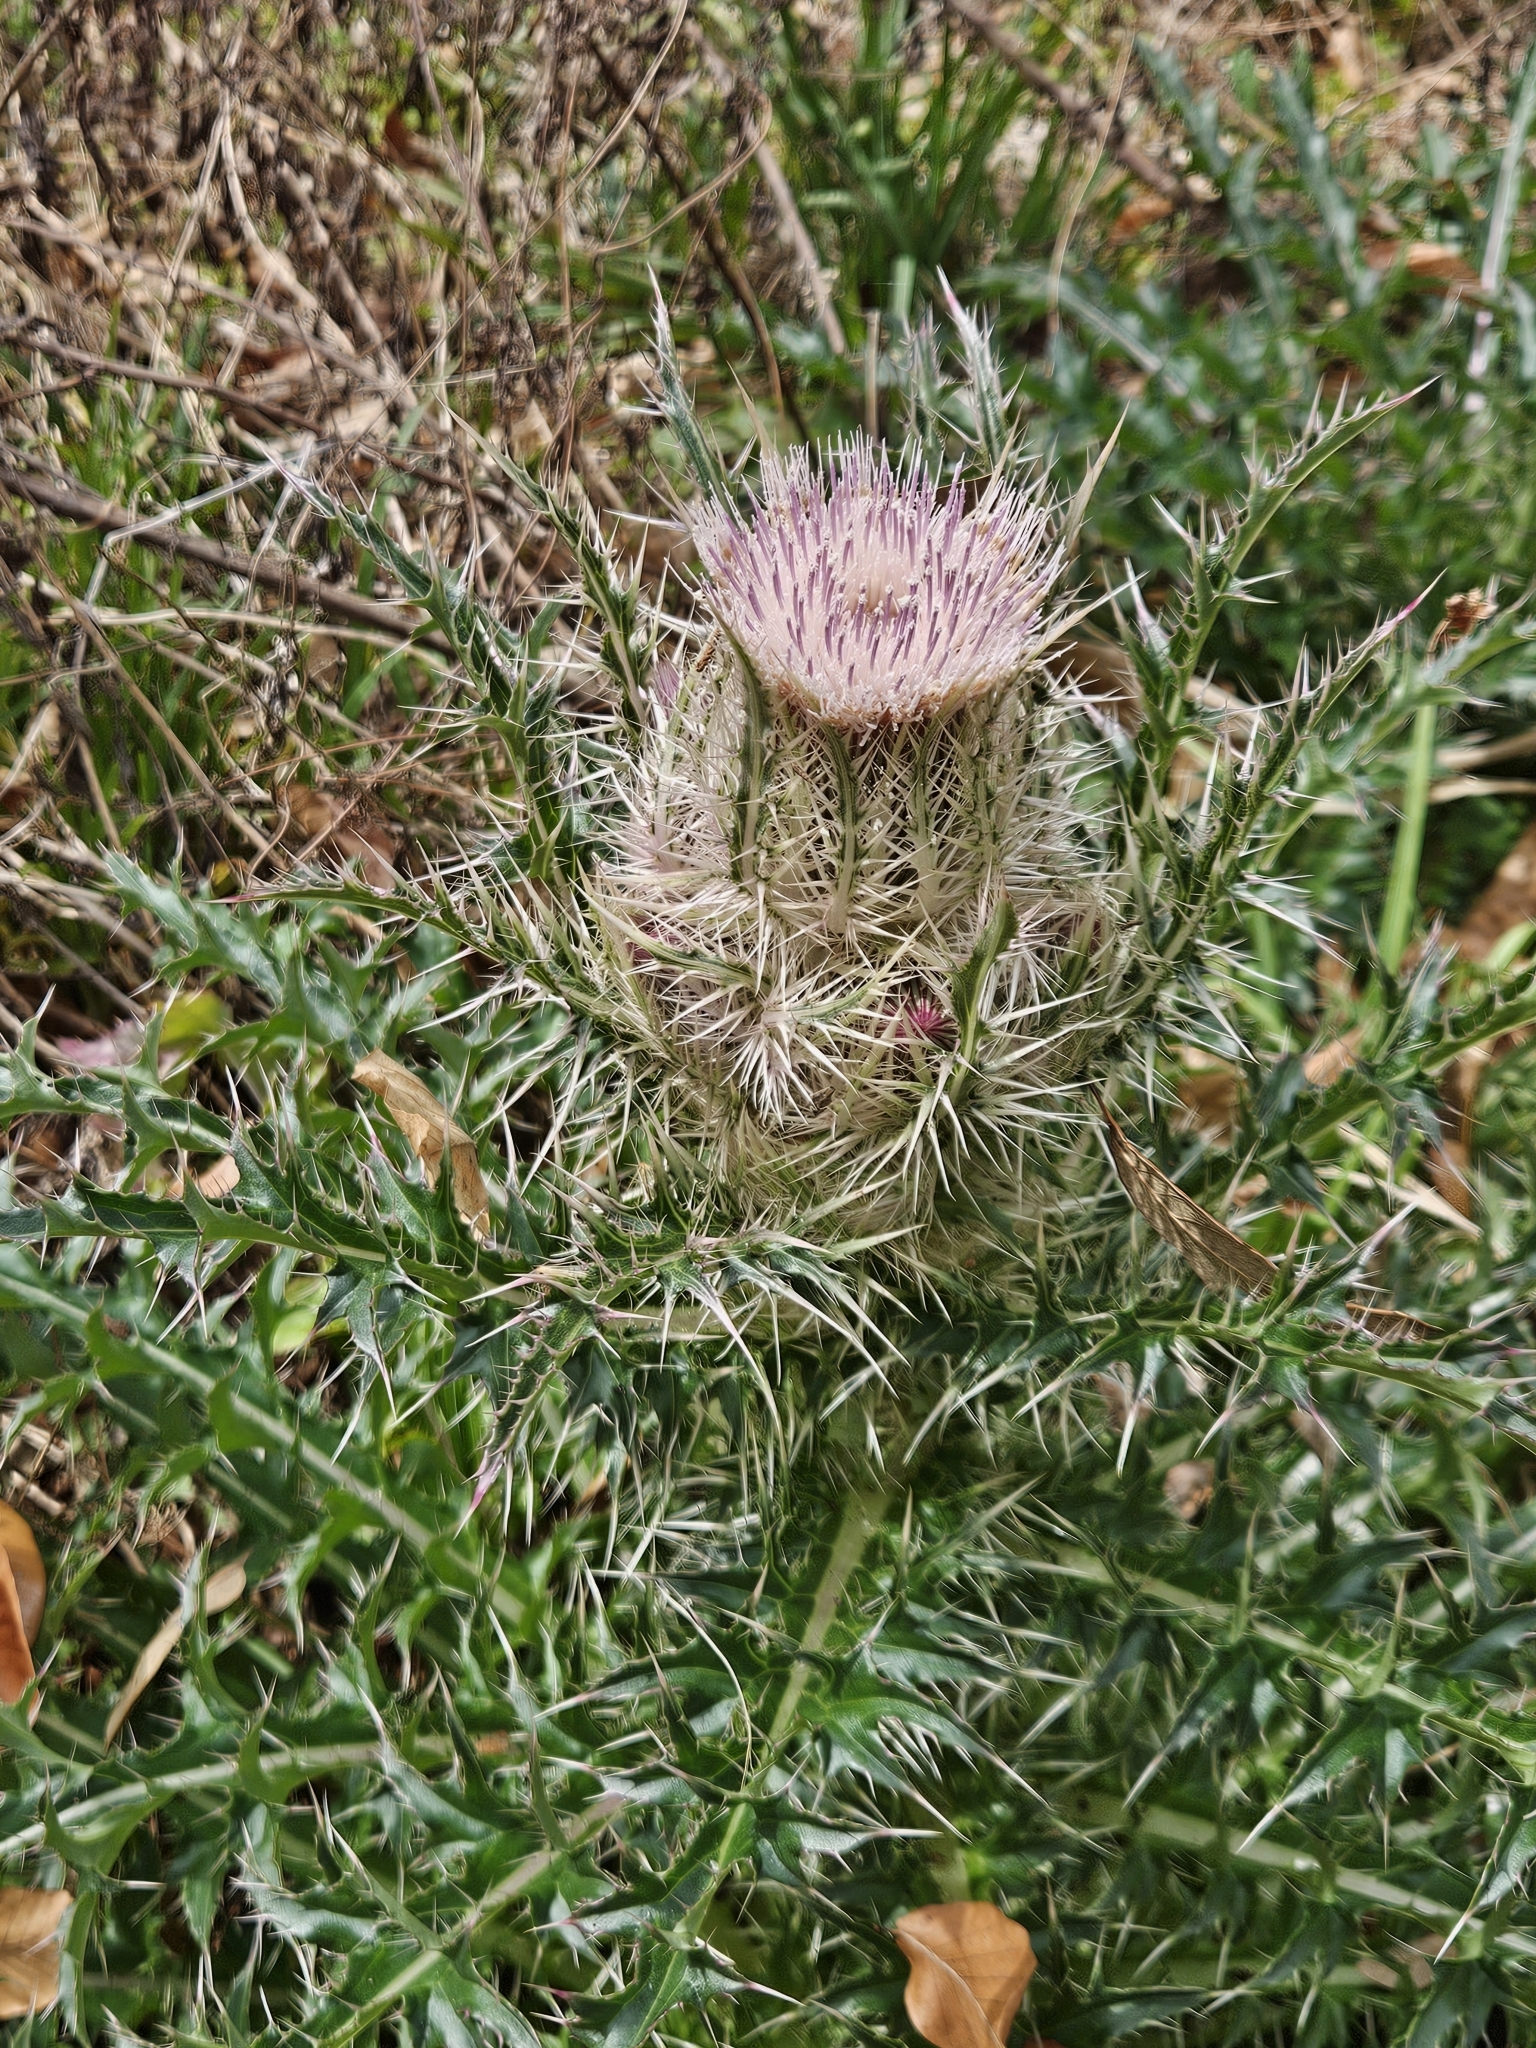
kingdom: Plantae
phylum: Tracheophyta
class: Magnoliopsida
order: Asterales
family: Asteraceae
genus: Cirsium
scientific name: Cirsium horridulum
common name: Bristly thistle
